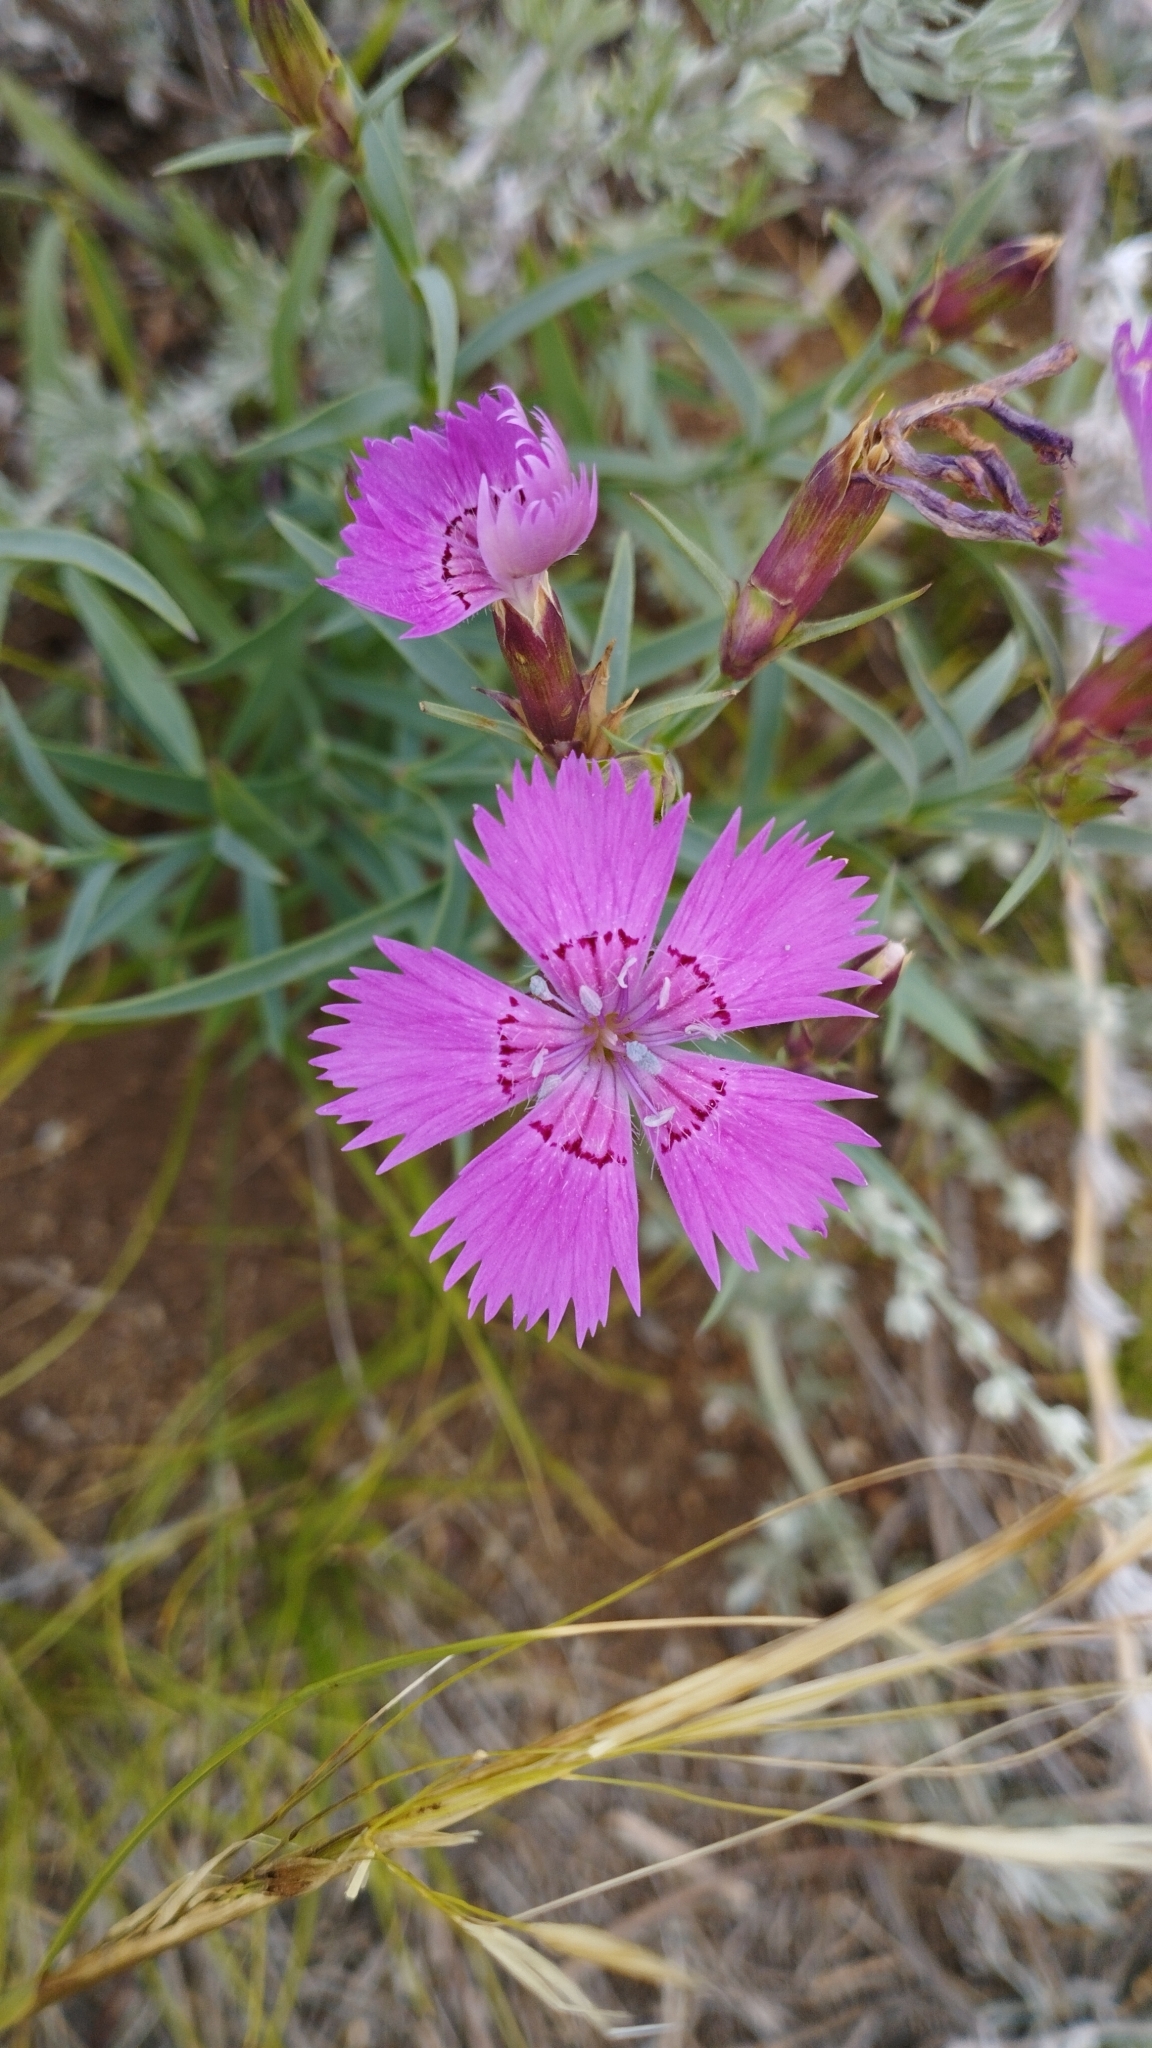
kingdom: Plantae
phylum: Tracheophyta
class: Magnoliopsida
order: Caryophyllales
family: Caryophyllaceae
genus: Dianthus
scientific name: Dianthus chinensis
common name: Rainbow pink
